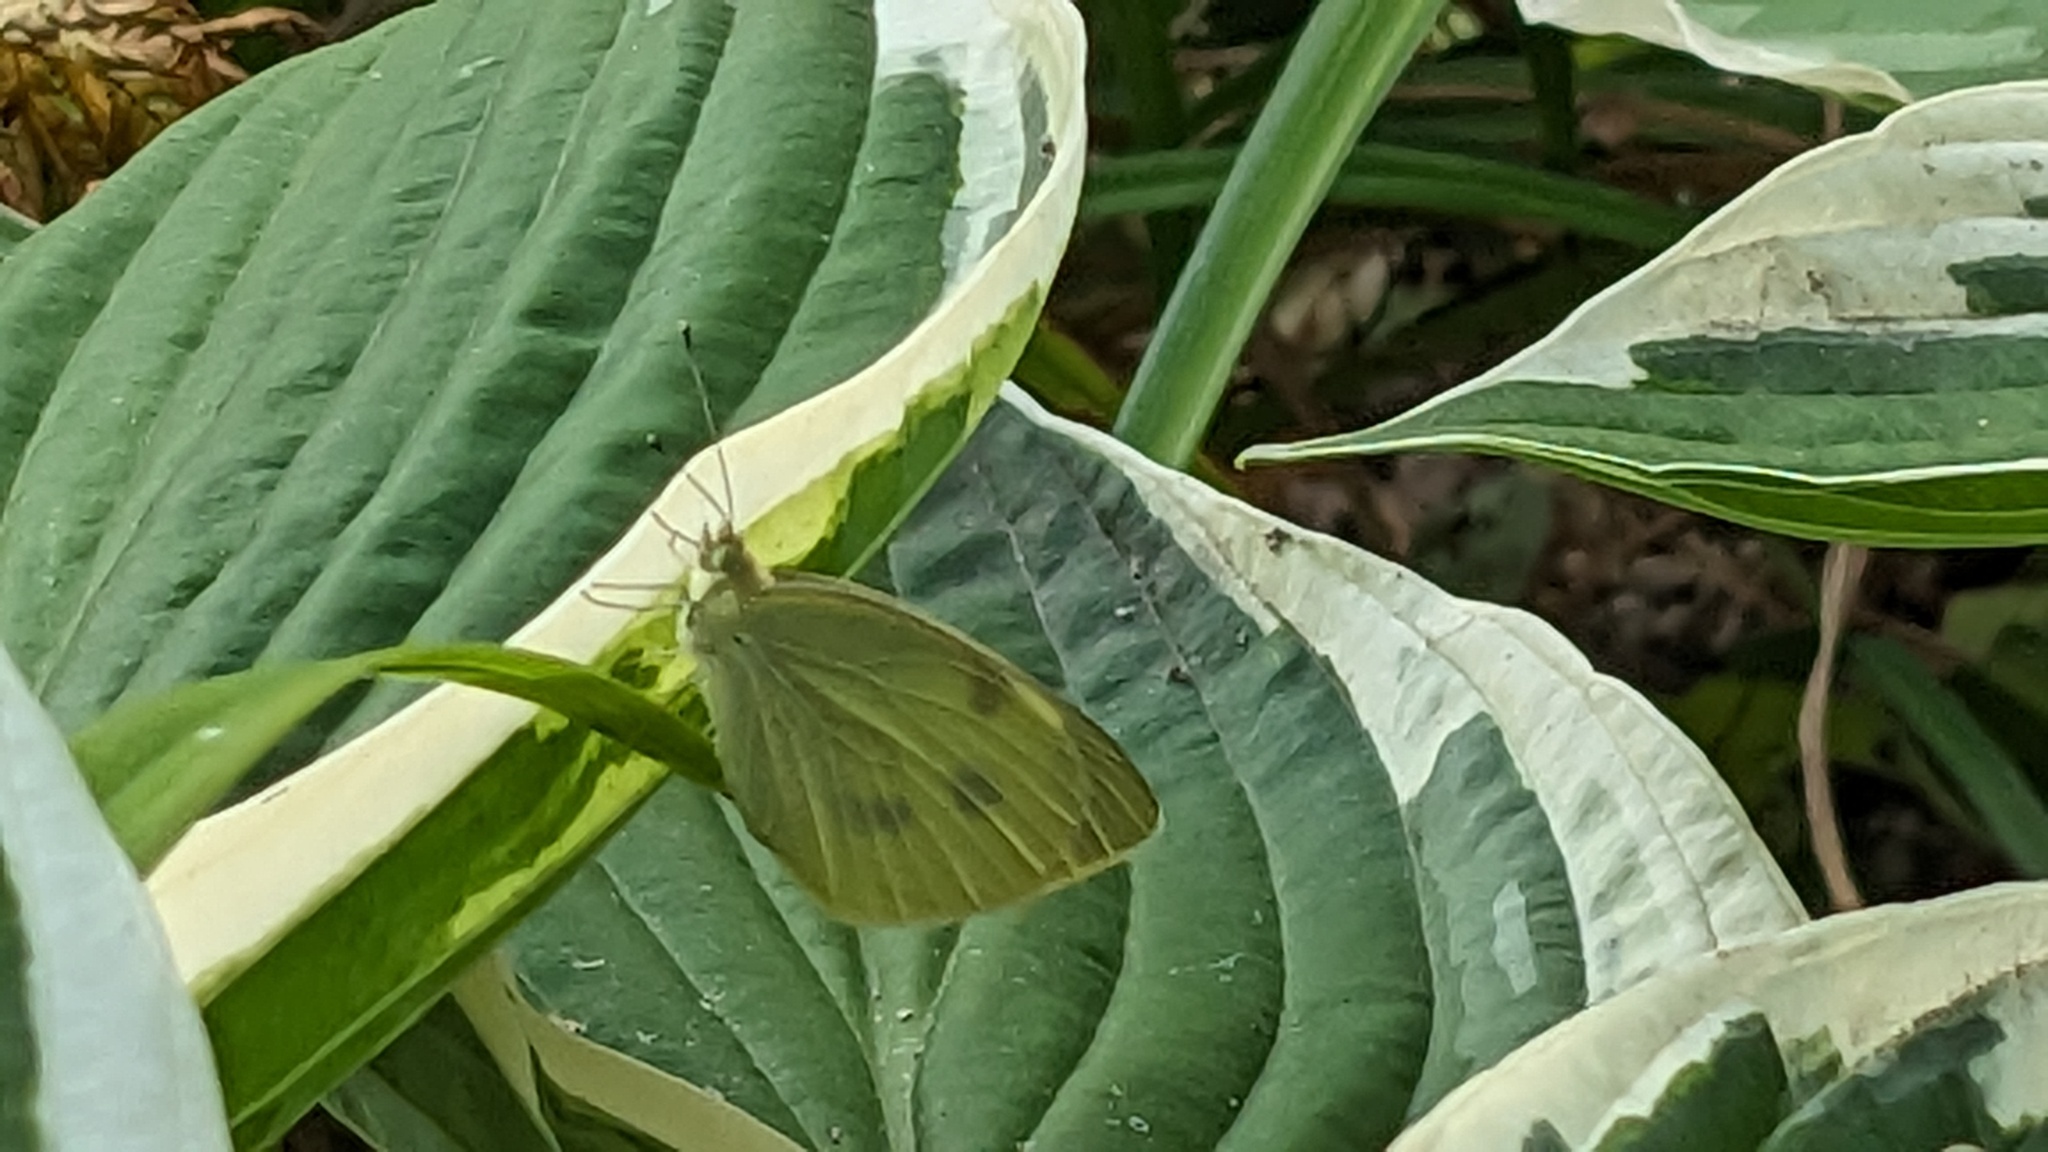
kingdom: Animalia
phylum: Arthropoda
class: Insecta
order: Lepidoptera
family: Pieridae
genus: Pieris
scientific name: Pieris rapae
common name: Small white
